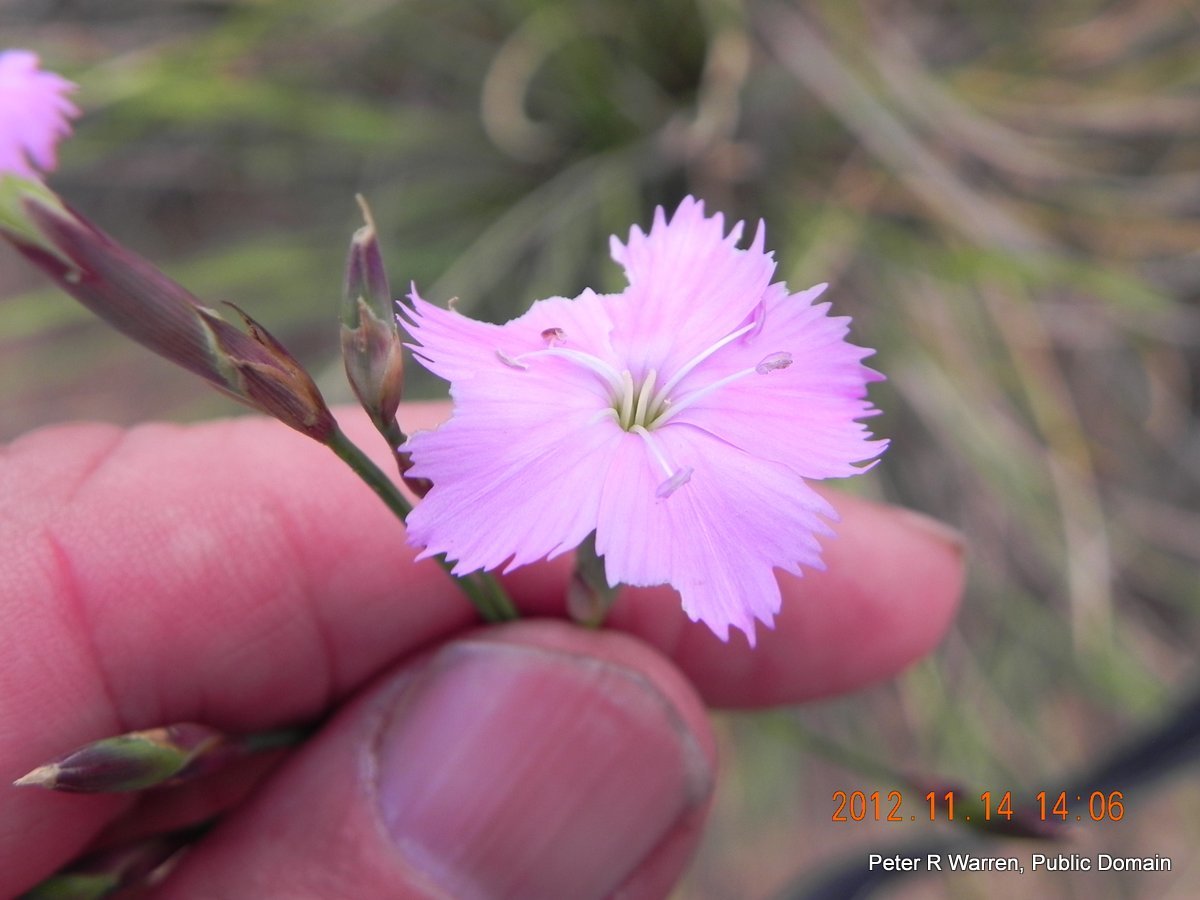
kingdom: Plantae
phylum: Tracheophyta
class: Magnoliopsida
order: Caryophyllales
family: Caryophyllaceae
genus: Dianthus
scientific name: Dianthus basuticus
